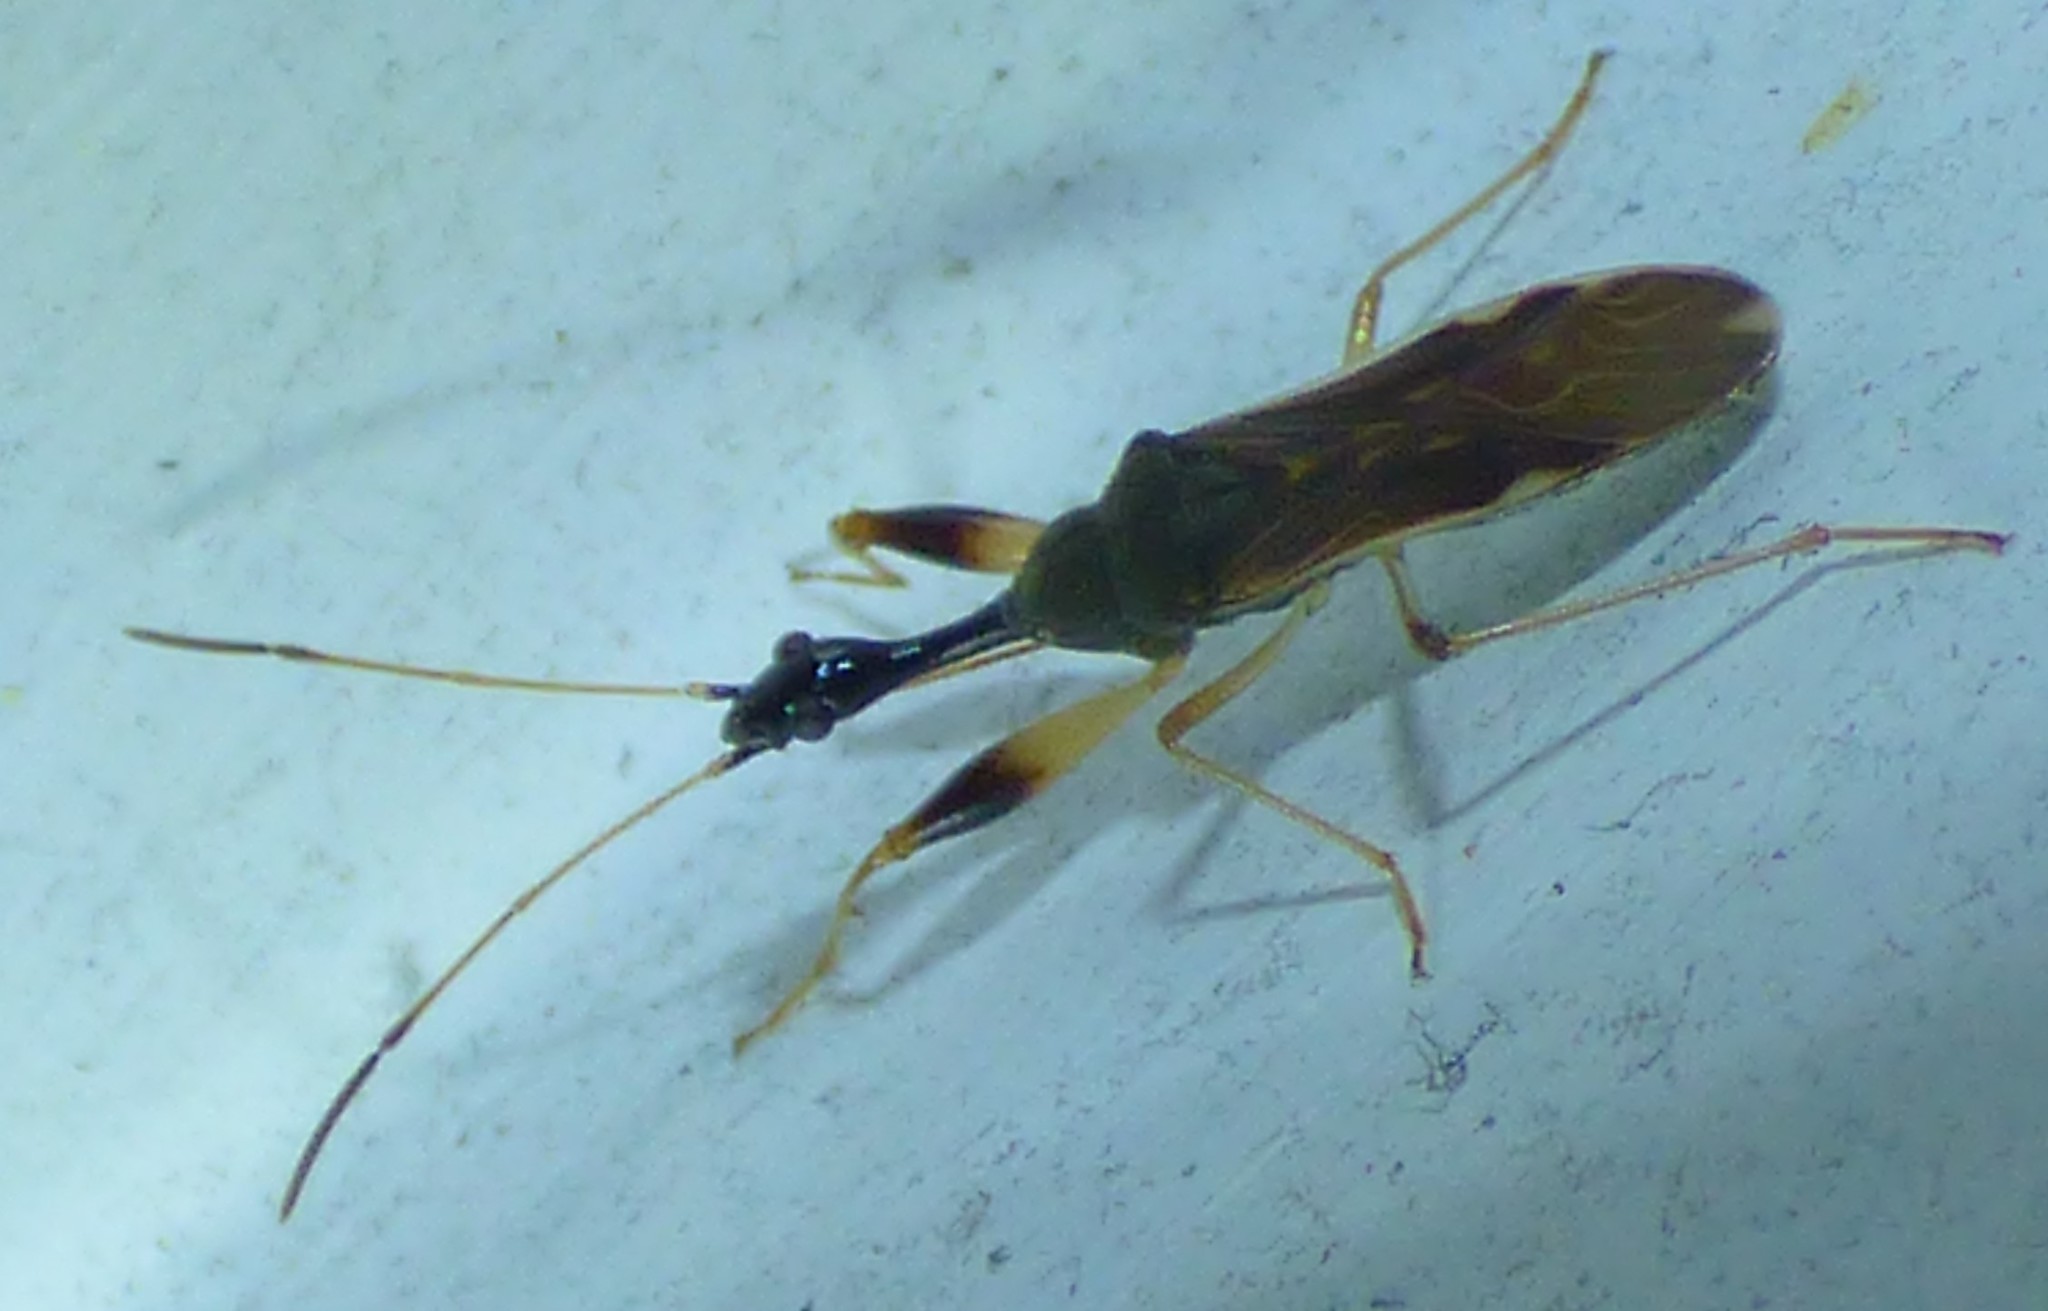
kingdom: Animalia
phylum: Arthropoda
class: Insecta
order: Hemiptera
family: Rhyparochromidae
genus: Myodocha
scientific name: Myodocha serripes
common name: Long-necked seed bug
